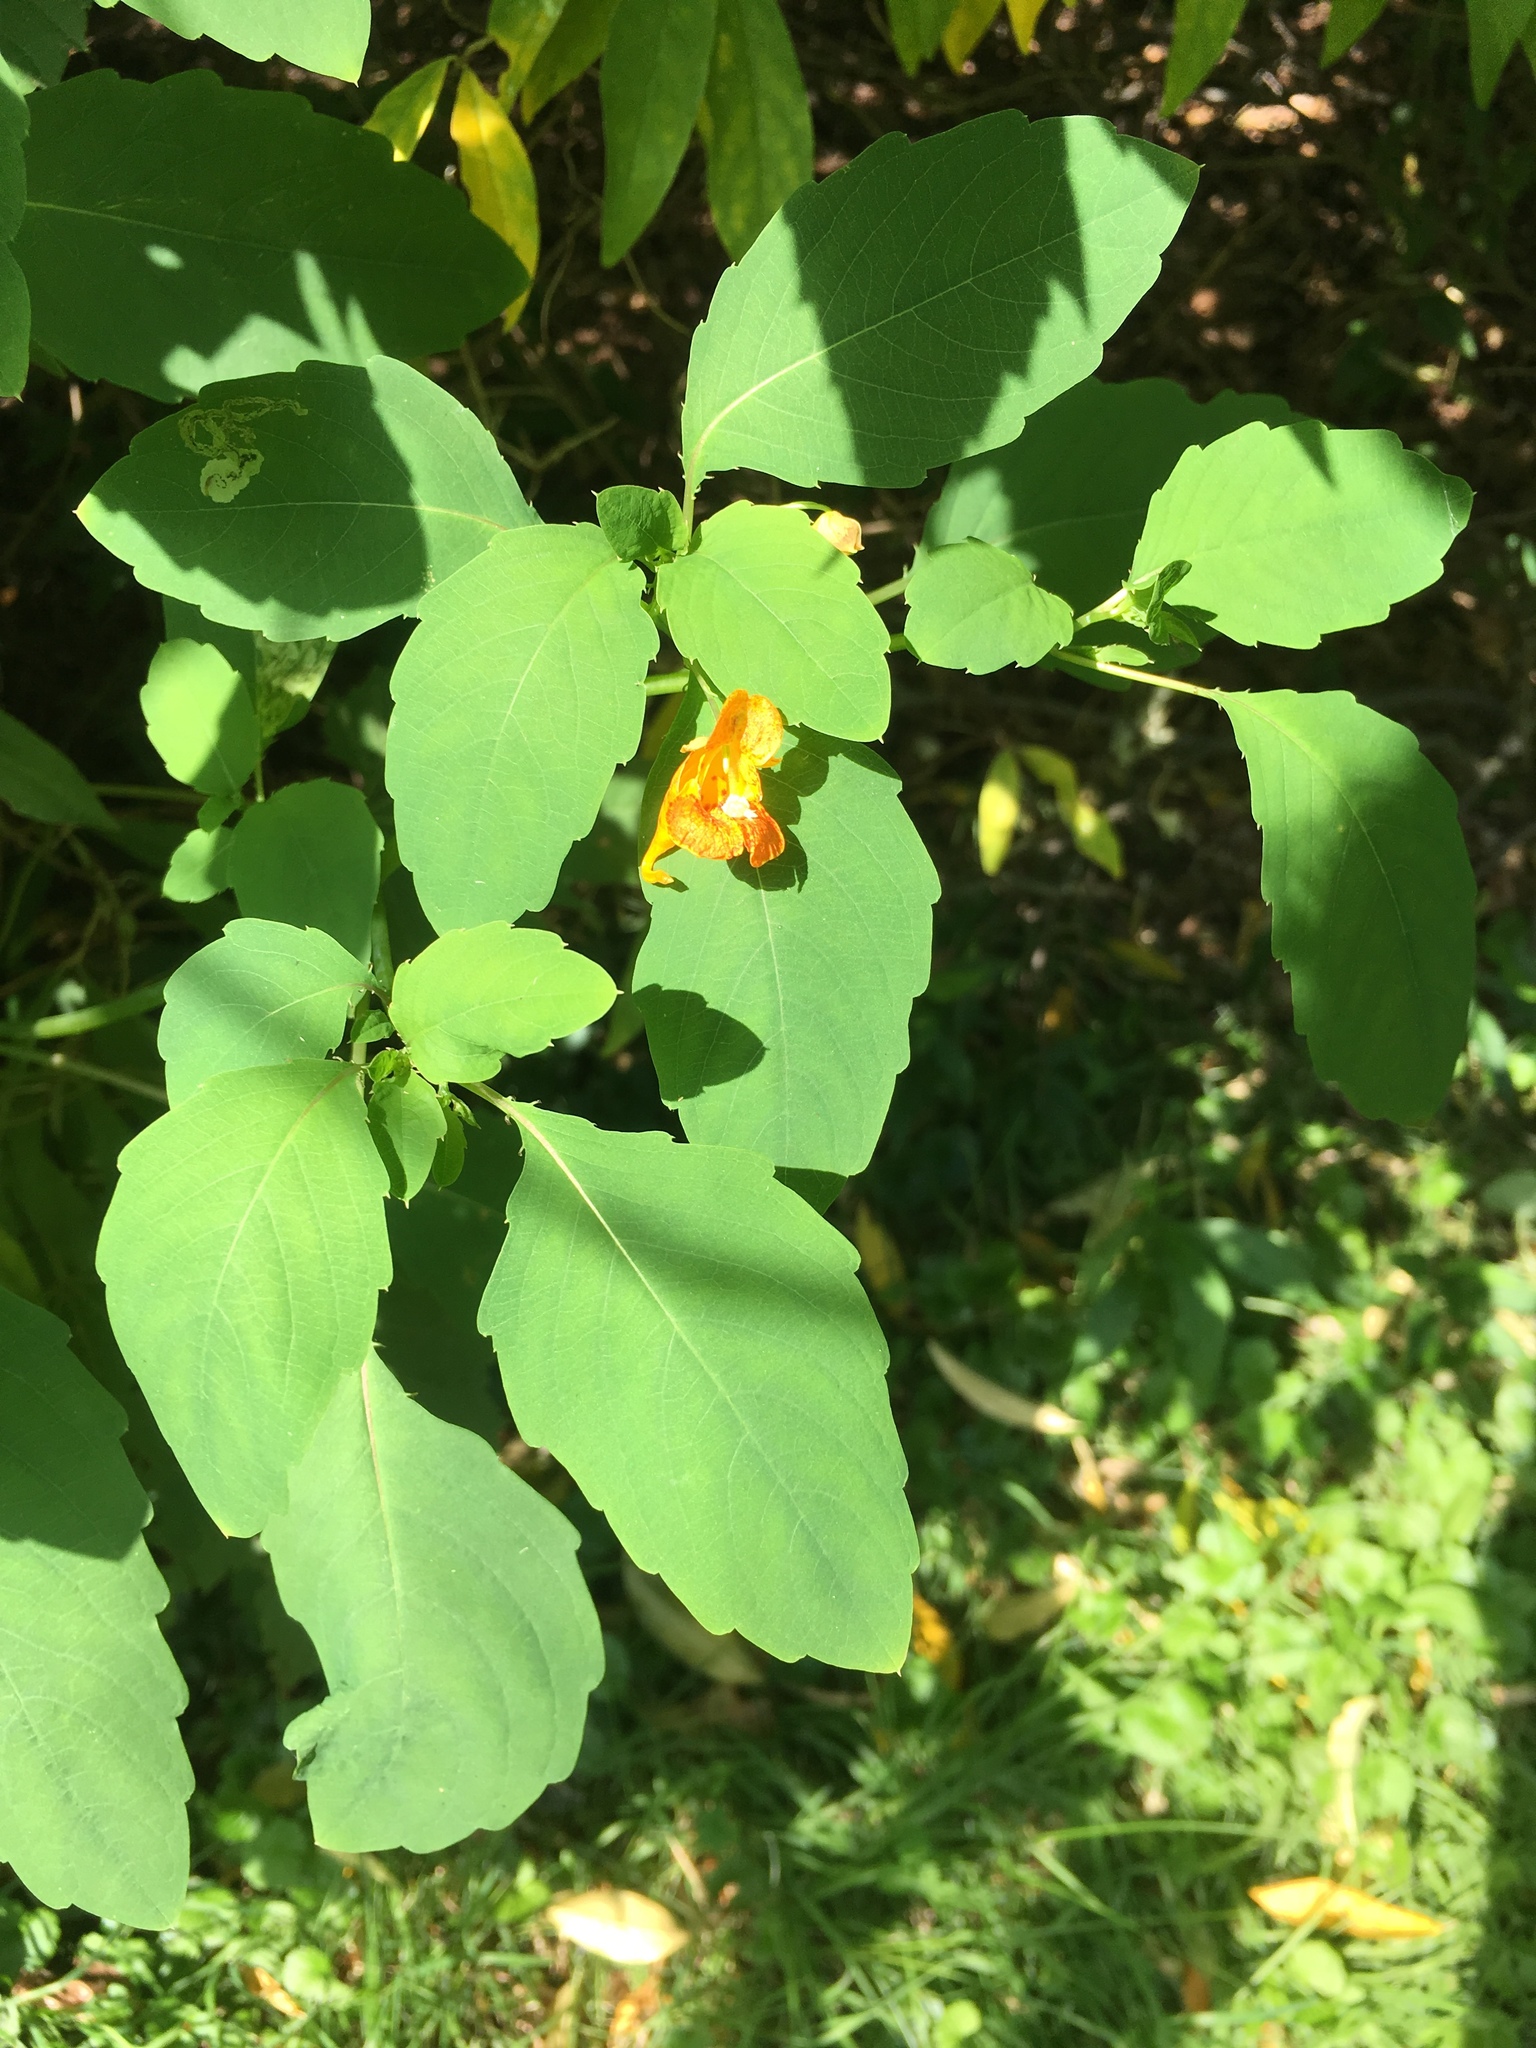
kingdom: Plantae
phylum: Tracheophyta
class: Magnoliopsida
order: Ericales
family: Balsaminaceae
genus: Impatiens
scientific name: Impatiens capensis
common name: Orange balsam
